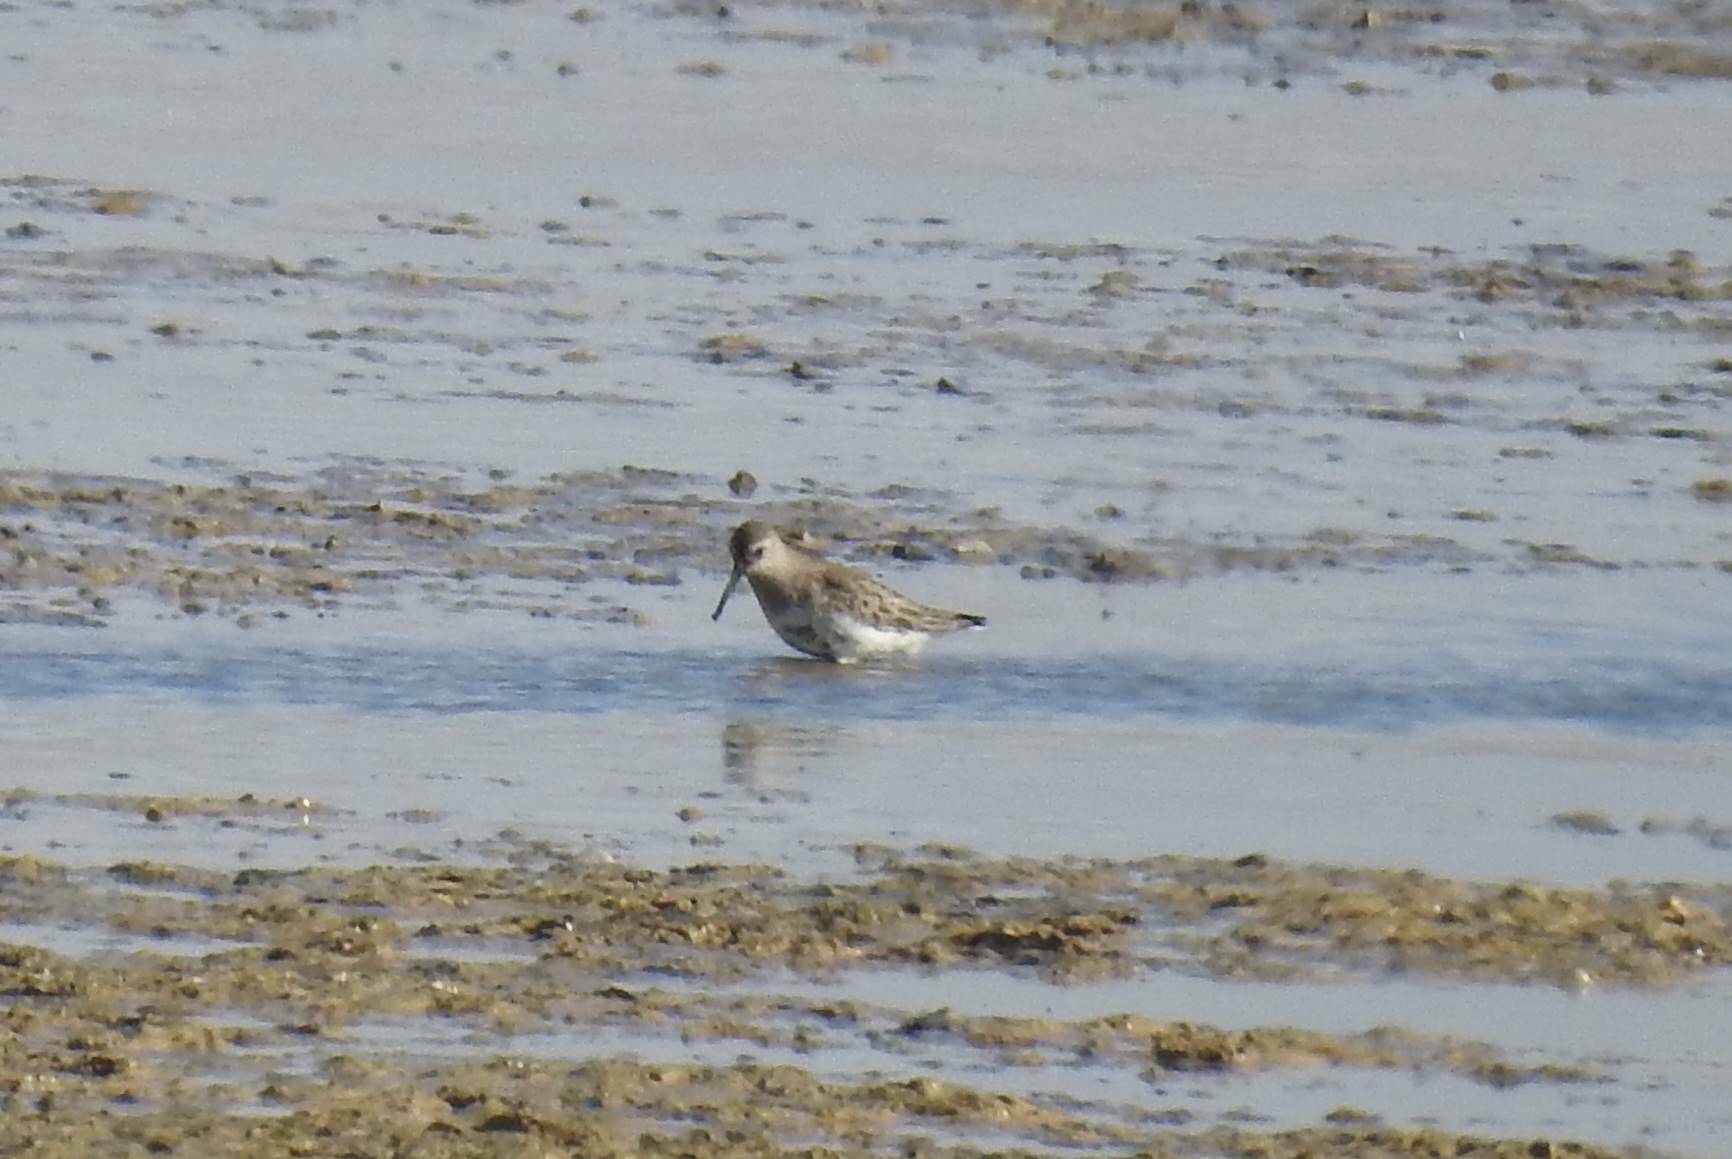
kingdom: Animalia
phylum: Chordata
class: Aves
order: Charadriiformes
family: Scolopacidae
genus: Calidris
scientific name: Calidris alpina
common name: Dunlin
